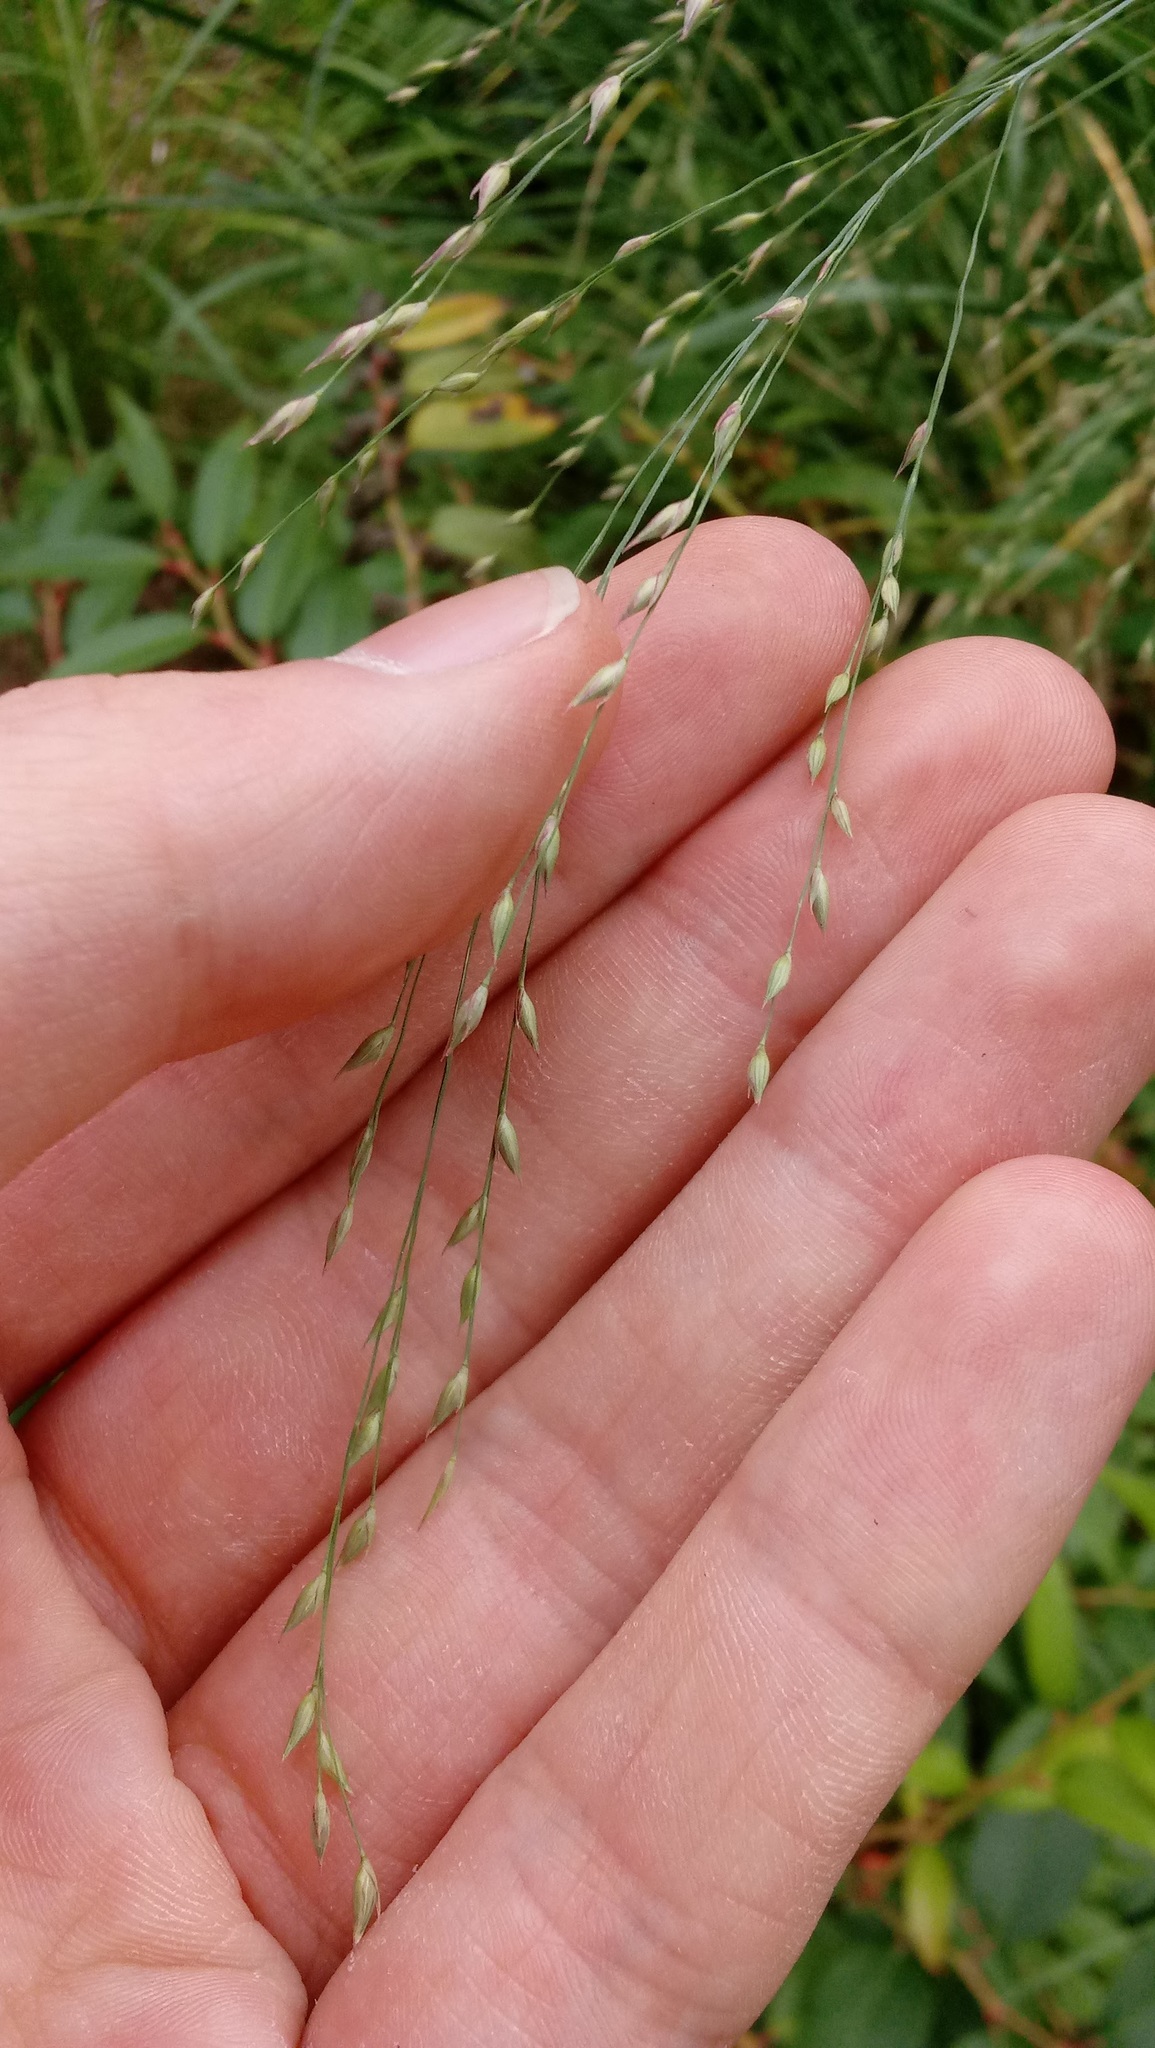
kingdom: Plantae
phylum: Tracheophyta
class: Liliopsida
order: Poales
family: Poaceae
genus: Panicum
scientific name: Panicum virgatum
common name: Switchgrass
